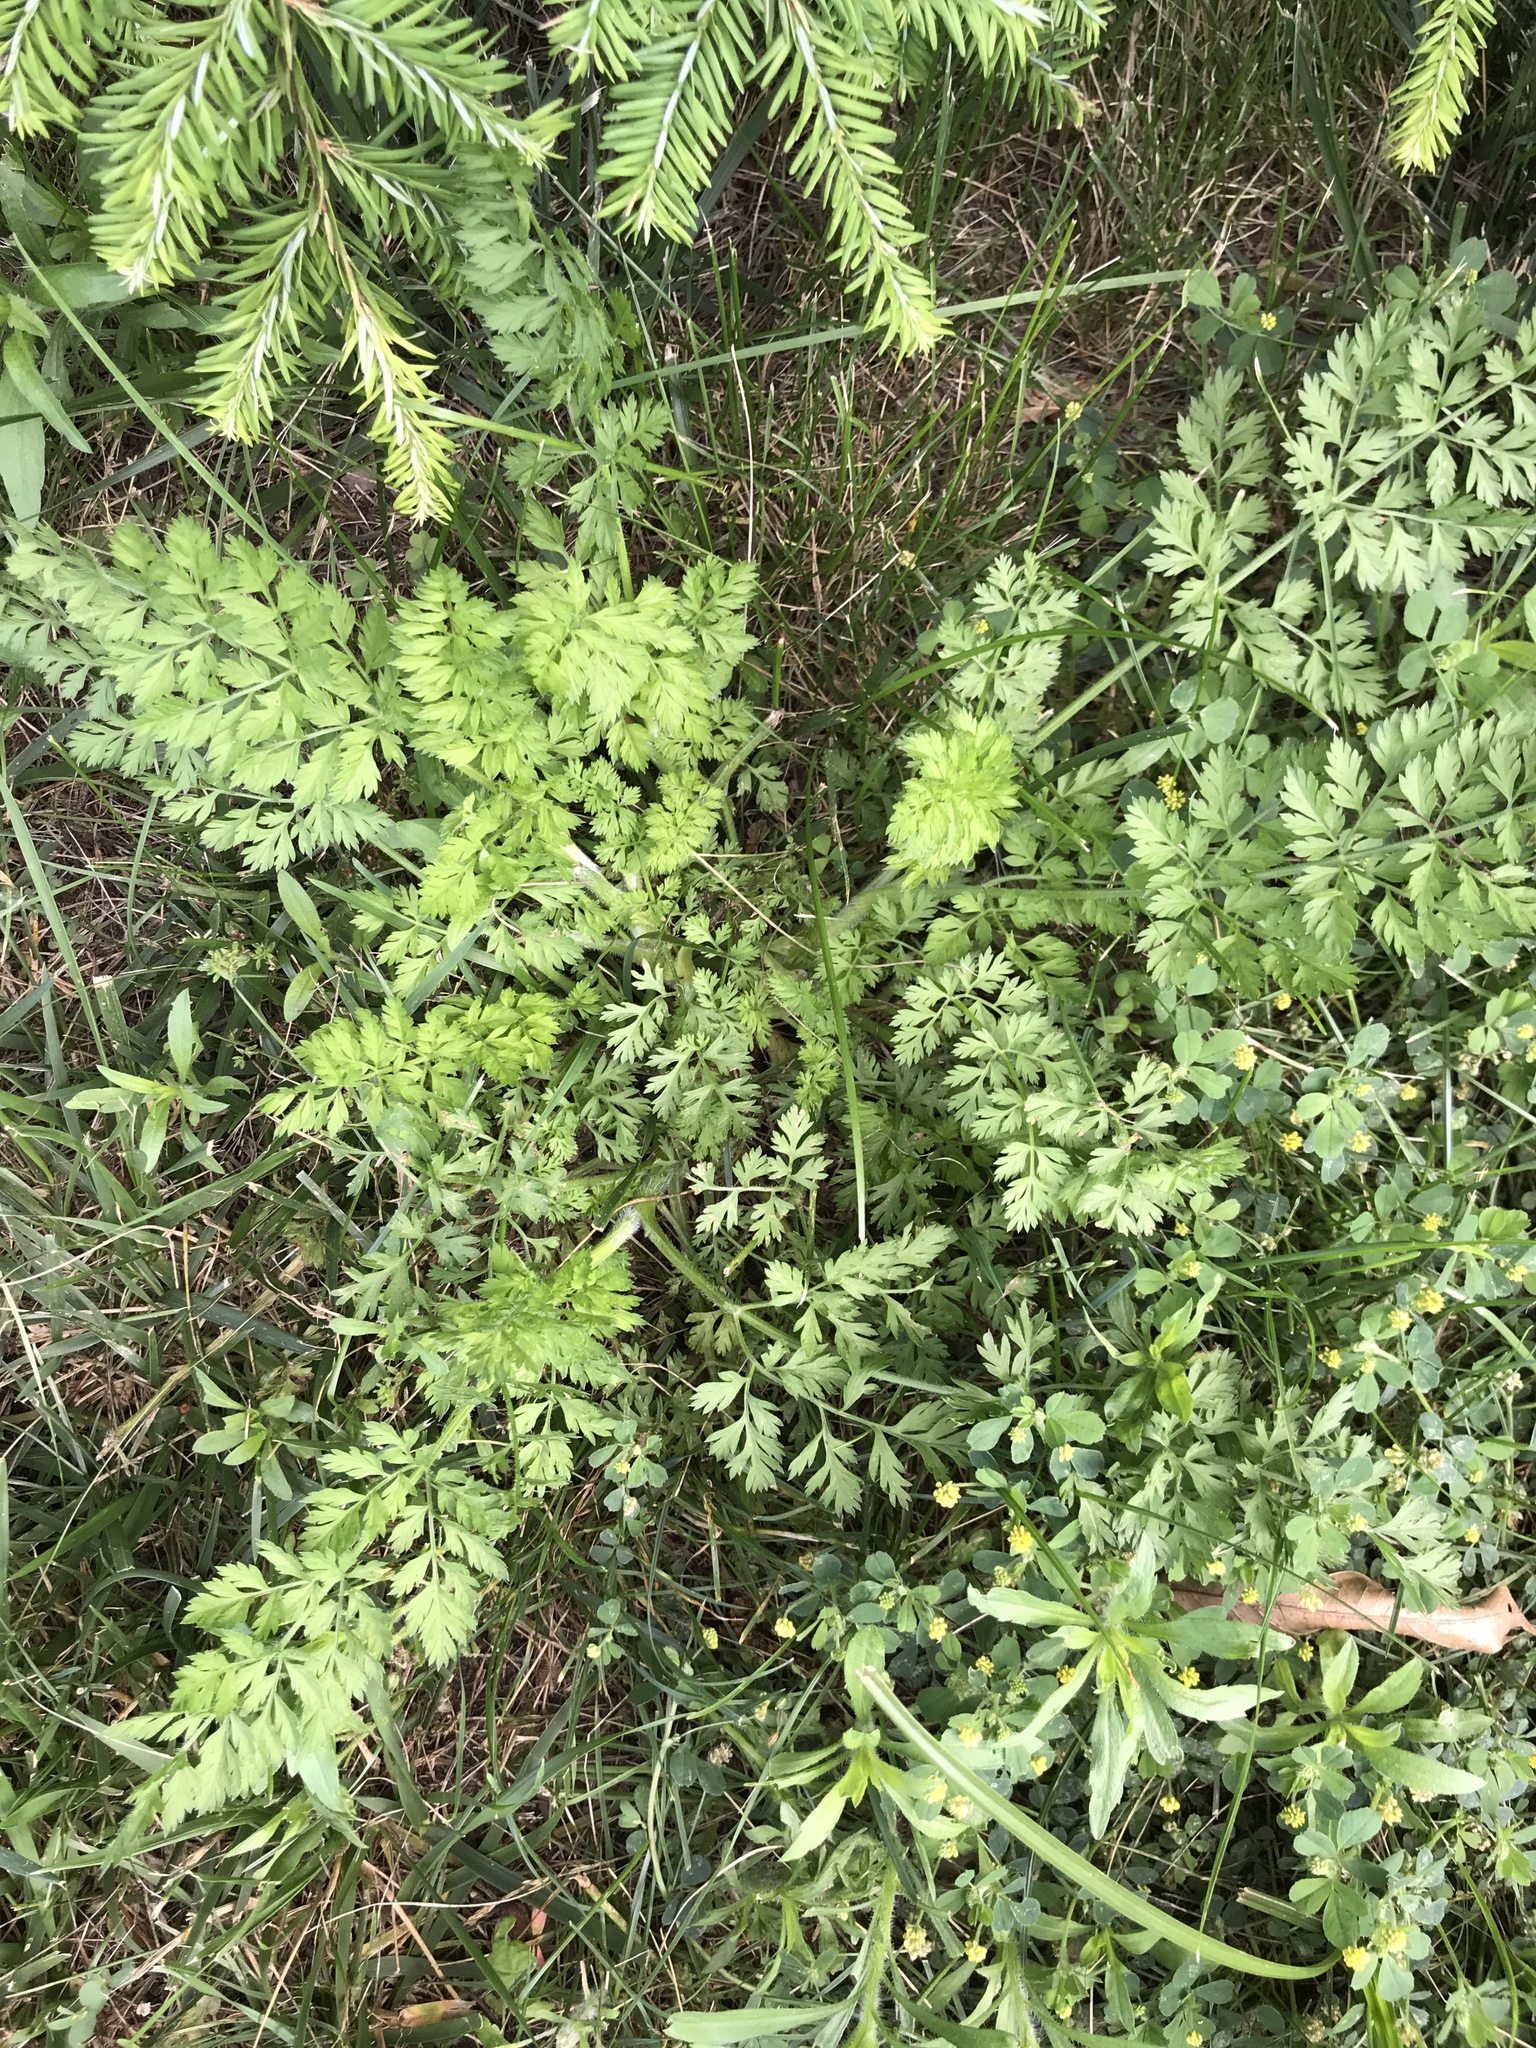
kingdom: Plantae
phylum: Tracheophyta
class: Magnoliopsida
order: Apiales
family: Apiaceae
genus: Daucus
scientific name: Daucus carota
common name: Wild carrot
